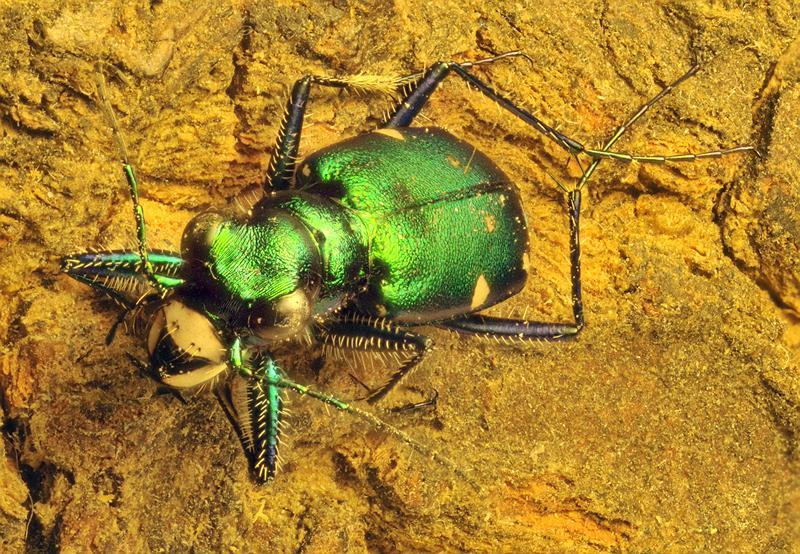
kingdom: Animalia
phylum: Arthropoda
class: Insecta
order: Coleoptera
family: Carabidae
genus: Cicindela
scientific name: Cicindela sexguttata
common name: Six-spotted tiger beetle
